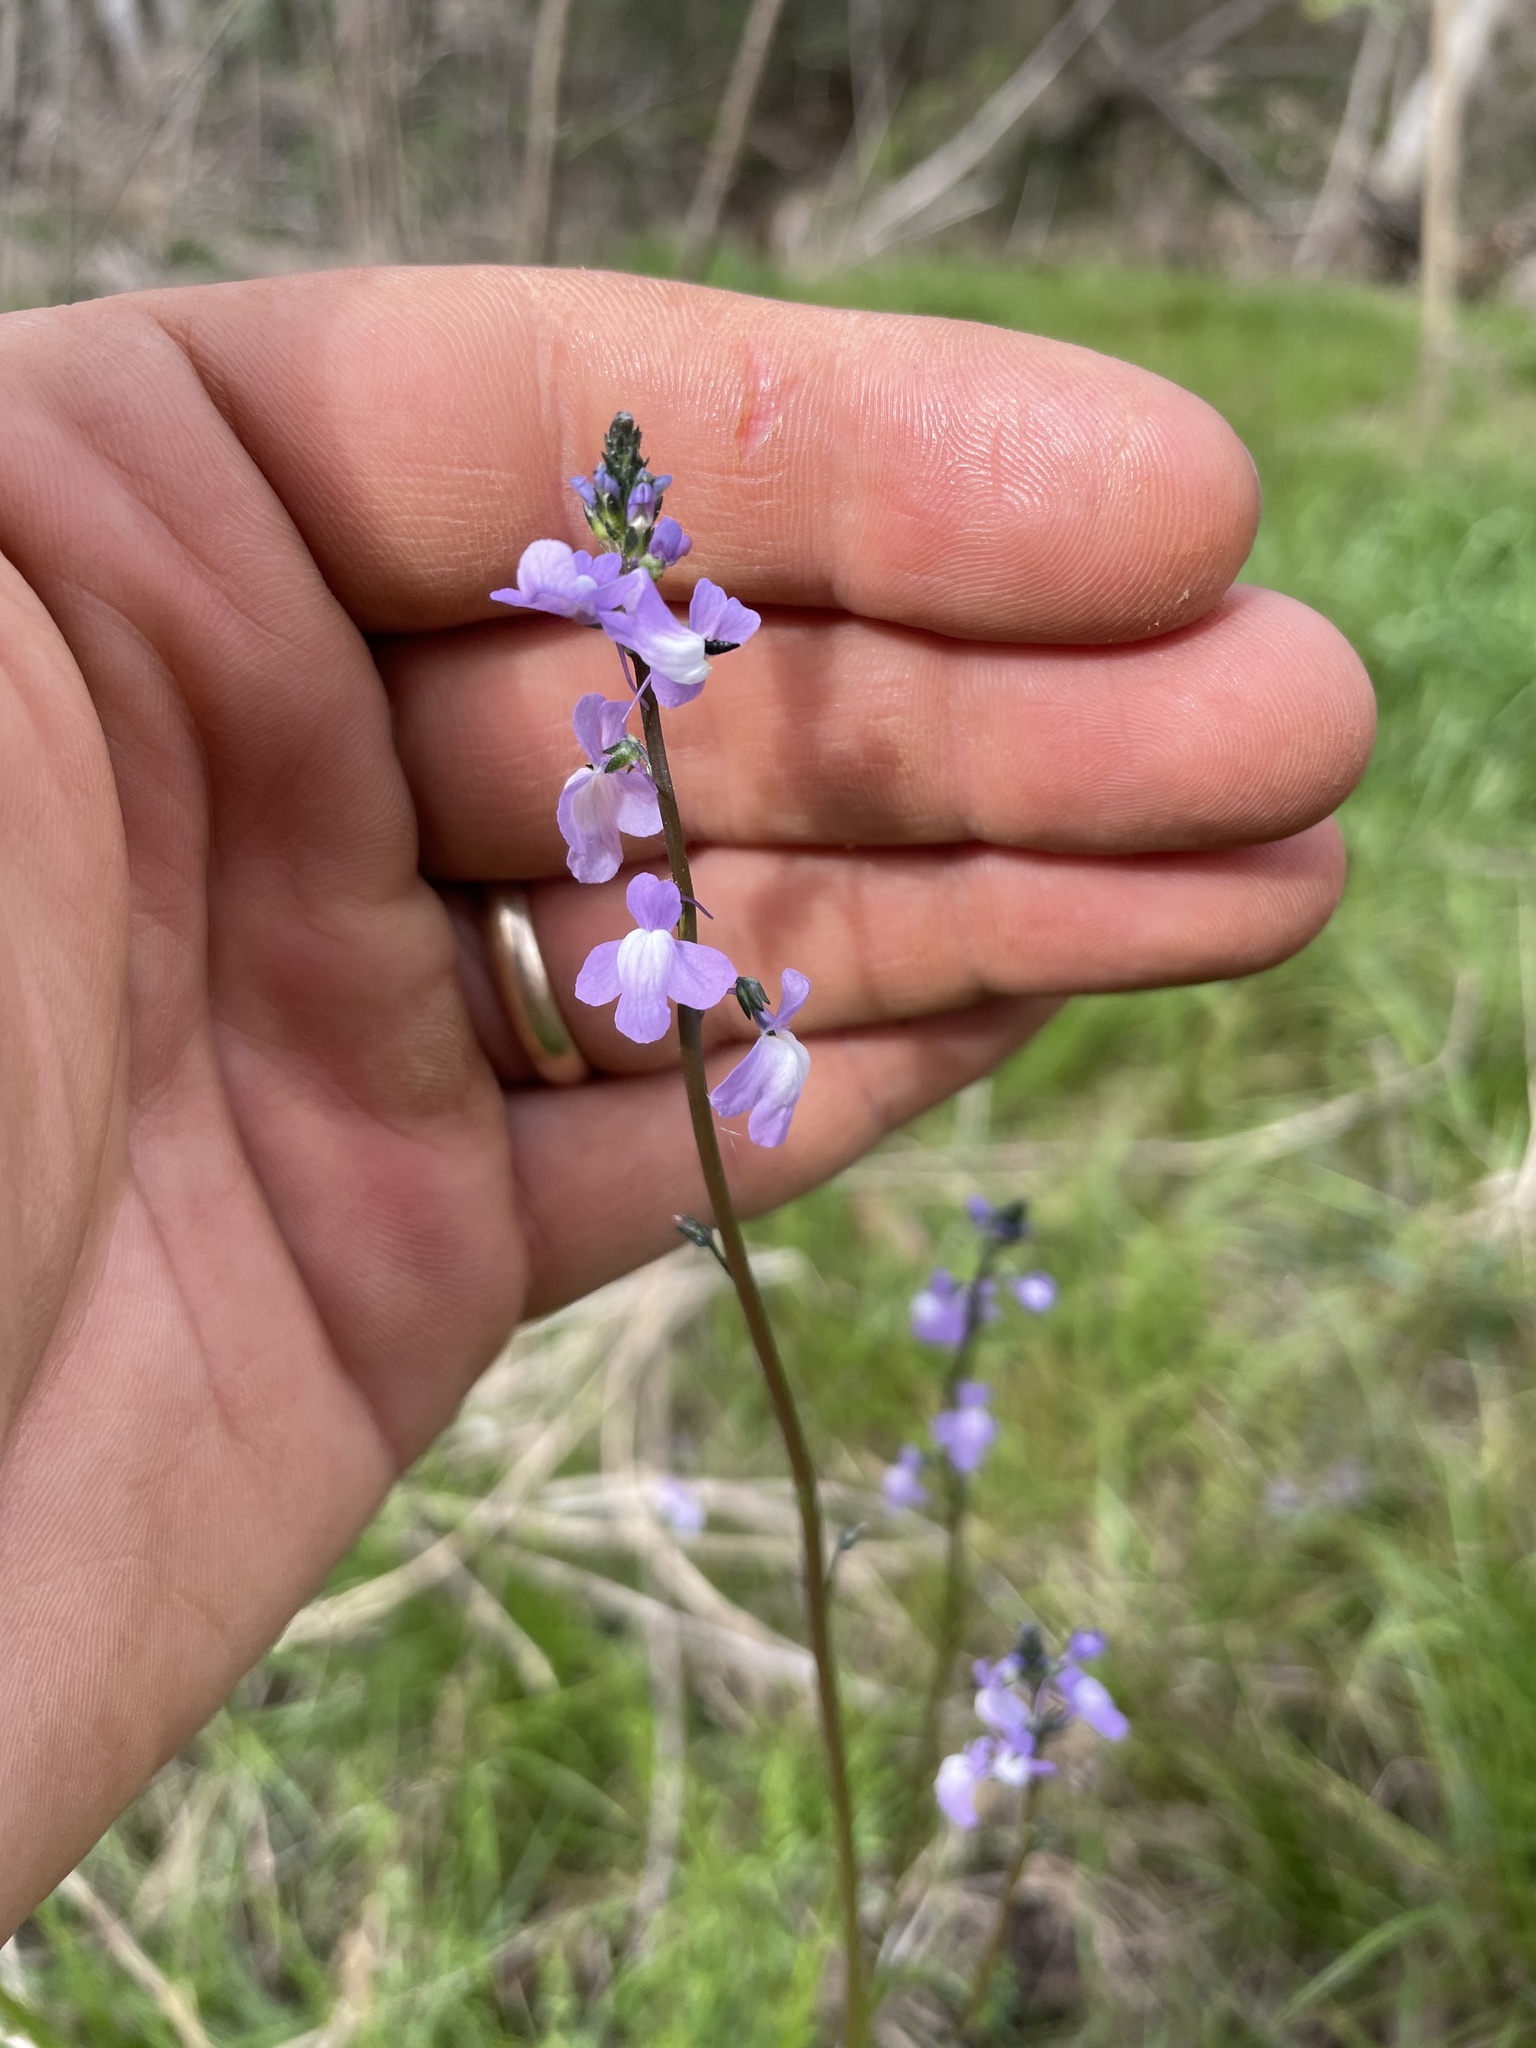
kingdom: Plantae
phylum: Tracheophyta
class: Magnoliopsida
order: Lamiales
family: Plantaginaceae
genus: Nuttallanthus
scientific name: Nuttallanthus canadensis
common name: Blue toadflax
